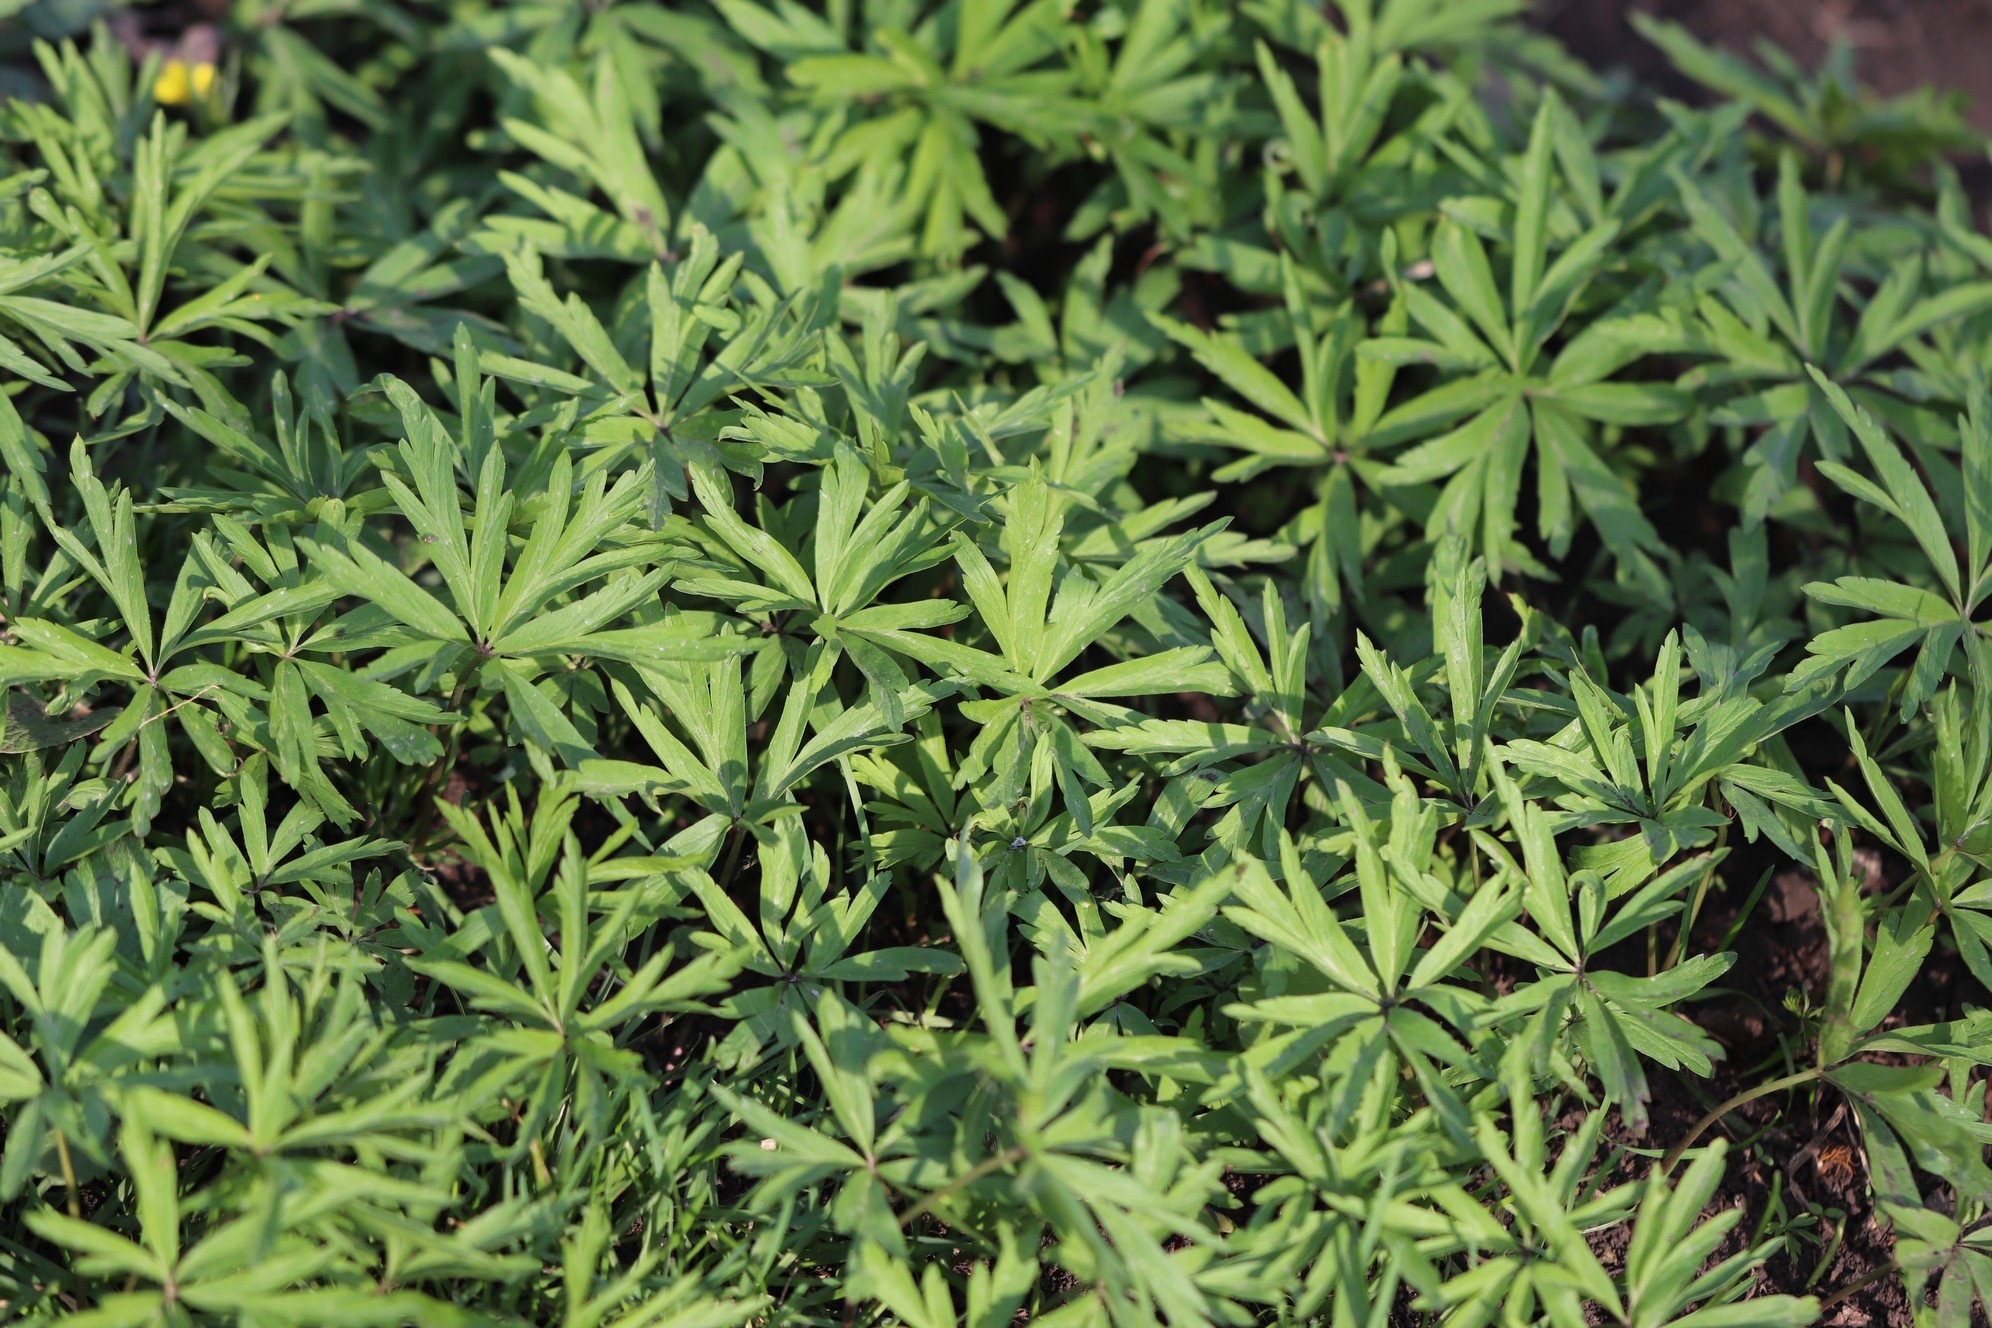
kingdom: Plantae
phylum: Tracheophyta
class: Magnoliopsida
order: Ranunculales
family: Ranunculaceae
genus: Anemone
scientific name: Anemone caerulea
